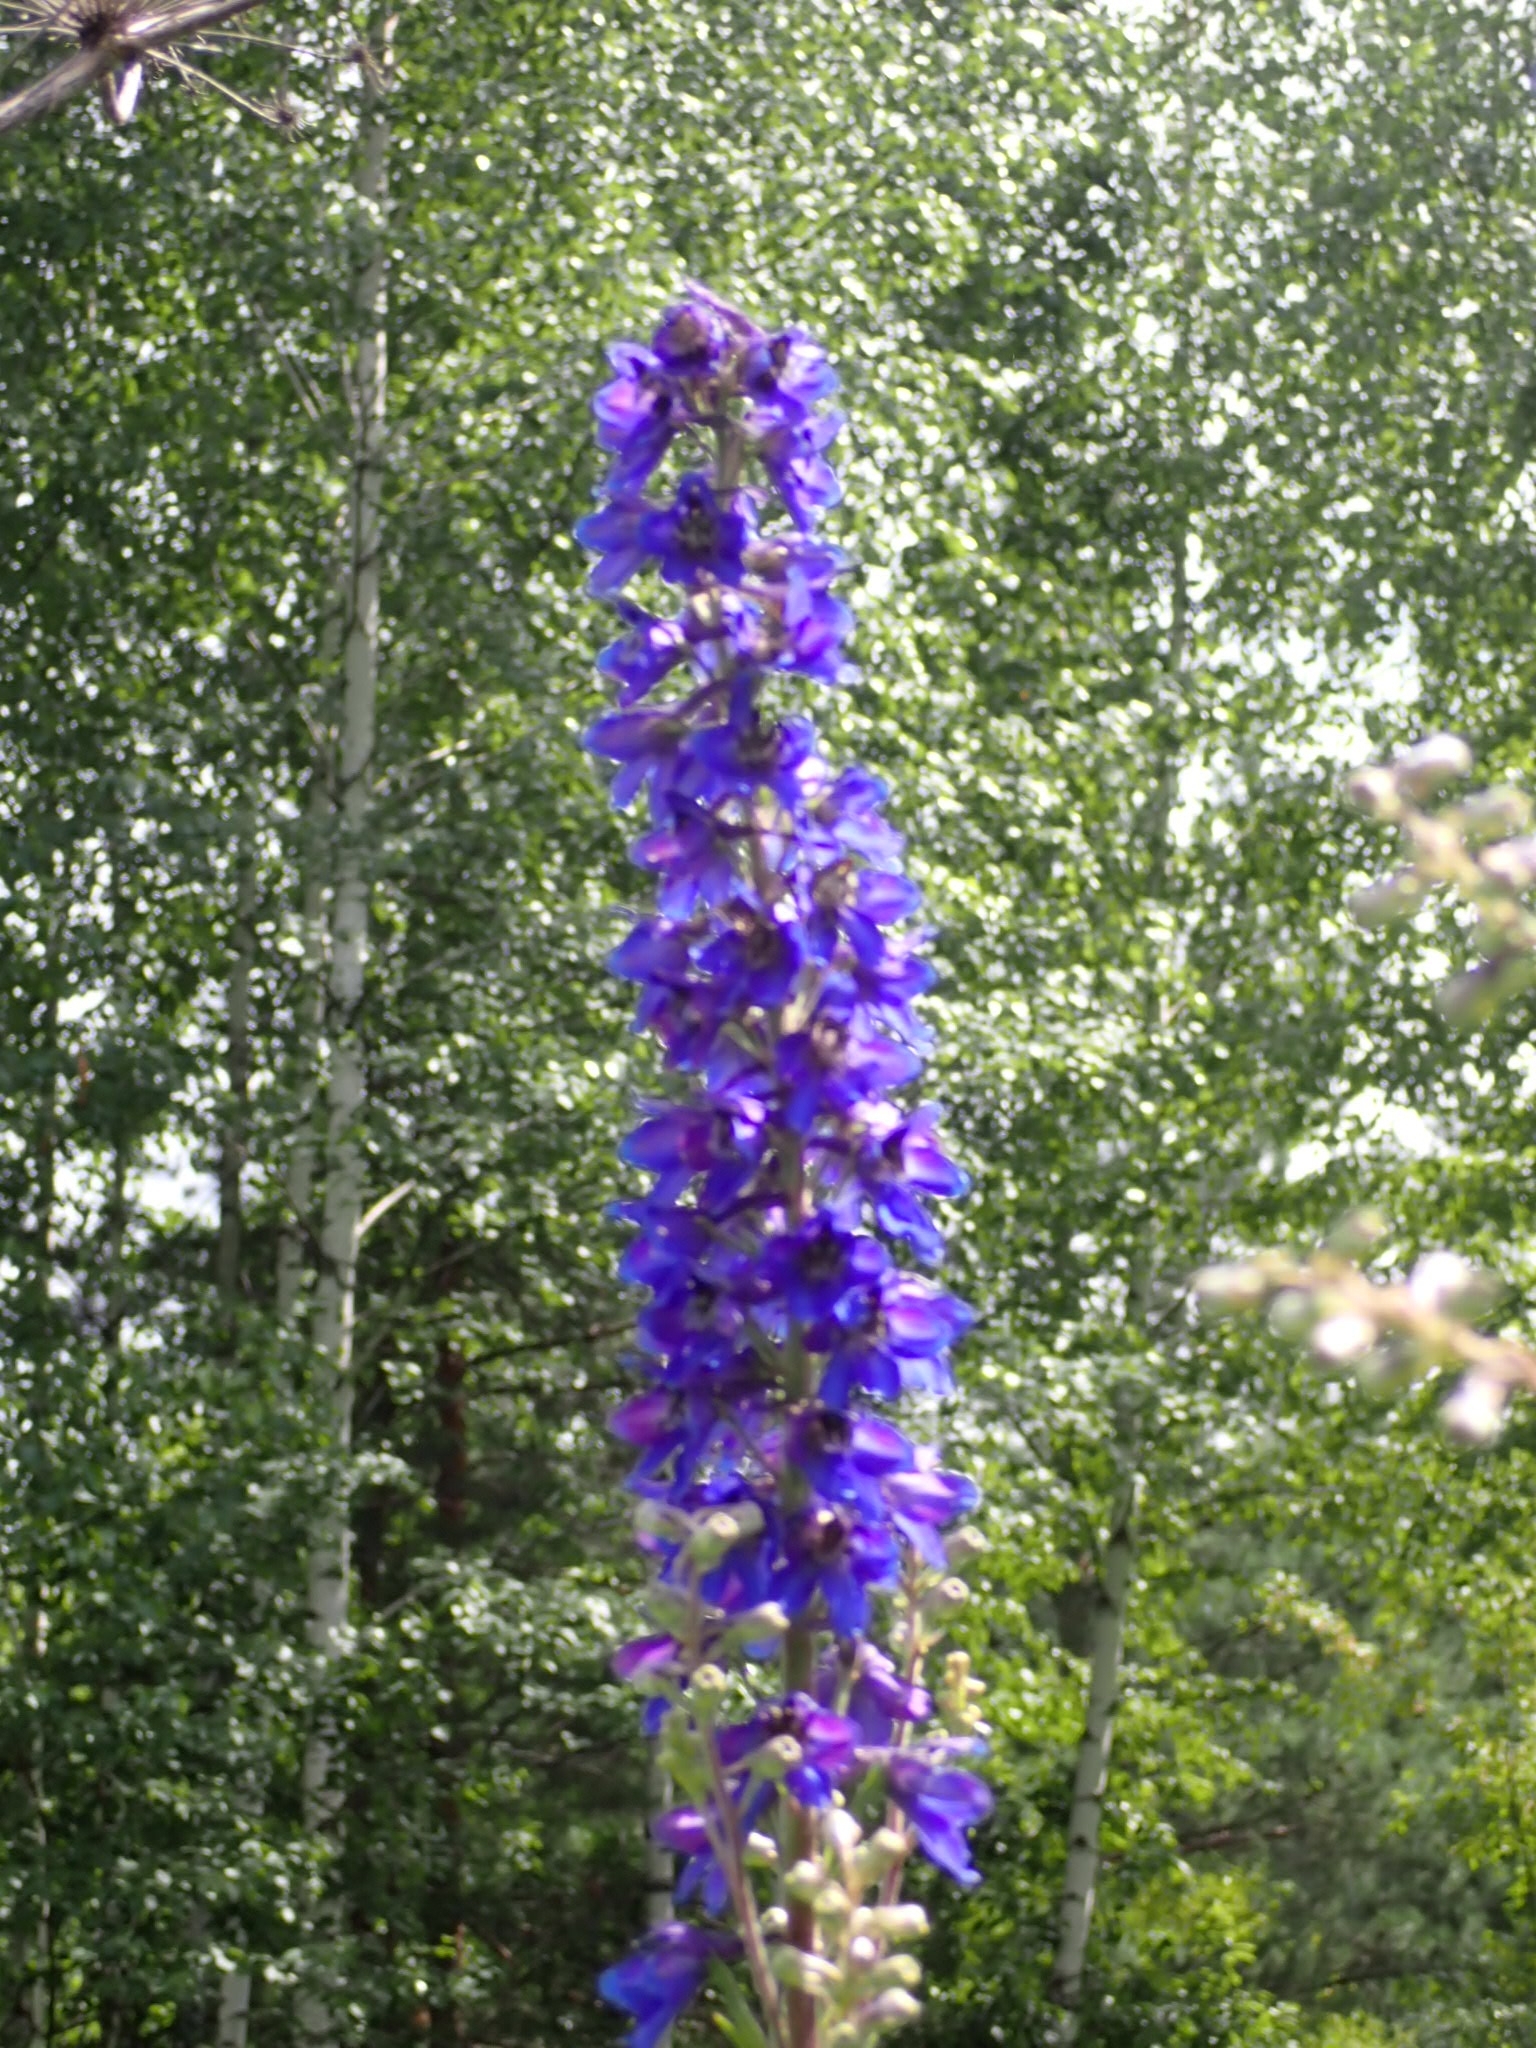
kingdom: Plantae
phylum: Tracheophyta
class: Magnoliopsida
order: Ranunculales
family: Ranunculaceae
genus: Delphinium
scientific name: Delphinium elatum
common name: Candle larkspur
